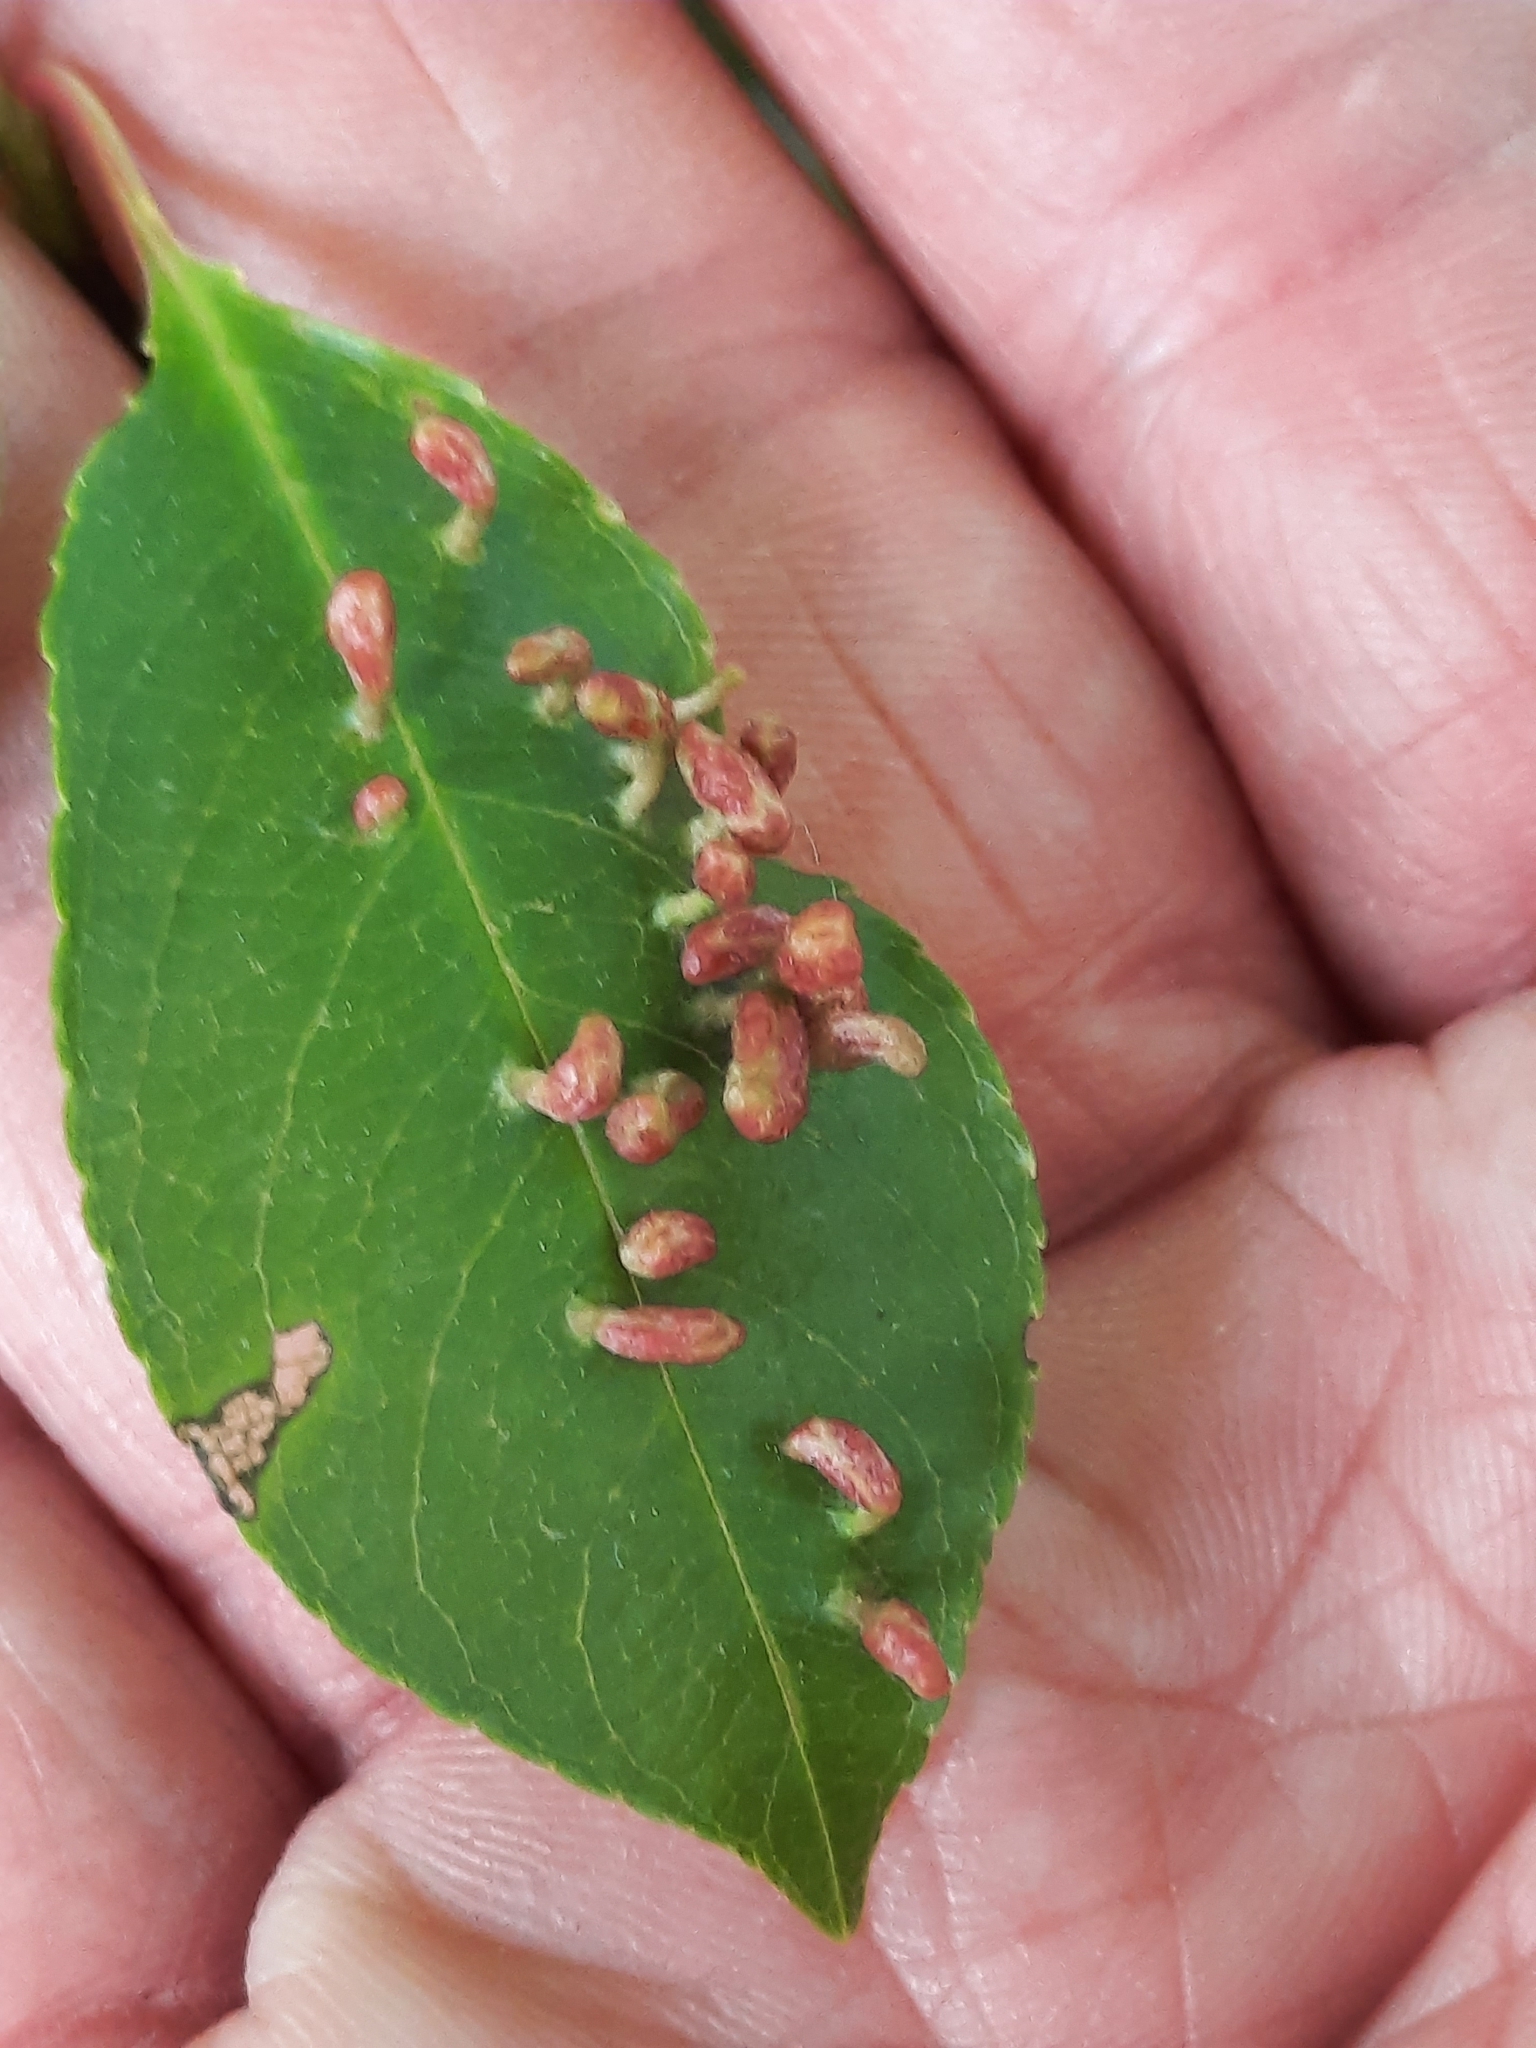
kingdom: Animalia
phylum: Arthropoda
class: Arachnida
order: Trombidiformes
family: Eriophyidae
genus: Eriophyes
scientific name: Eriophyes
